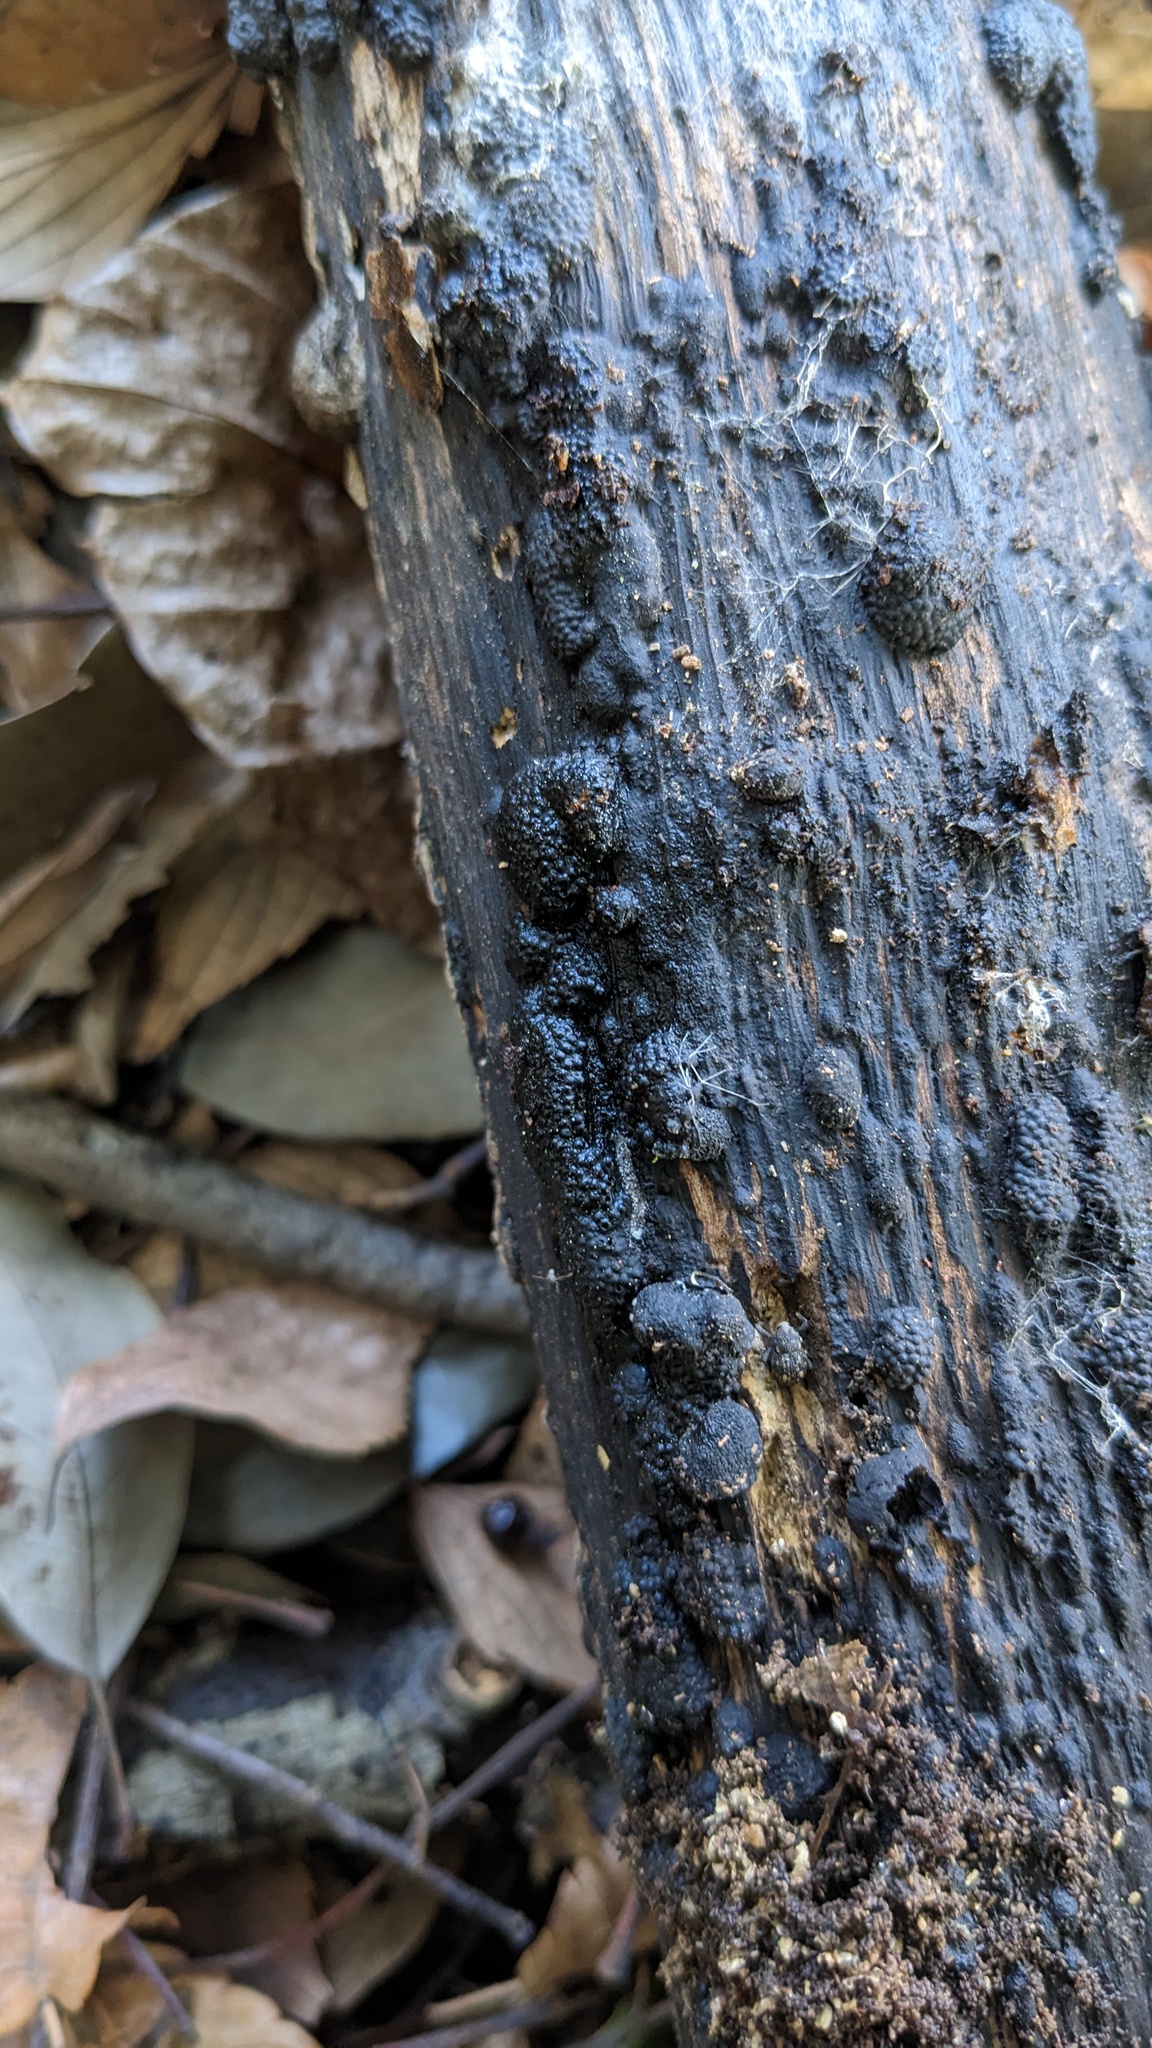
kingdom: Fungi
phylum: Ascomycota
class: Sordariomycetes
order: Xylariales
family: Hypoxylaceae
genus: Annulohypoxylon
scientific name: Annulohypoxylon truncatum
